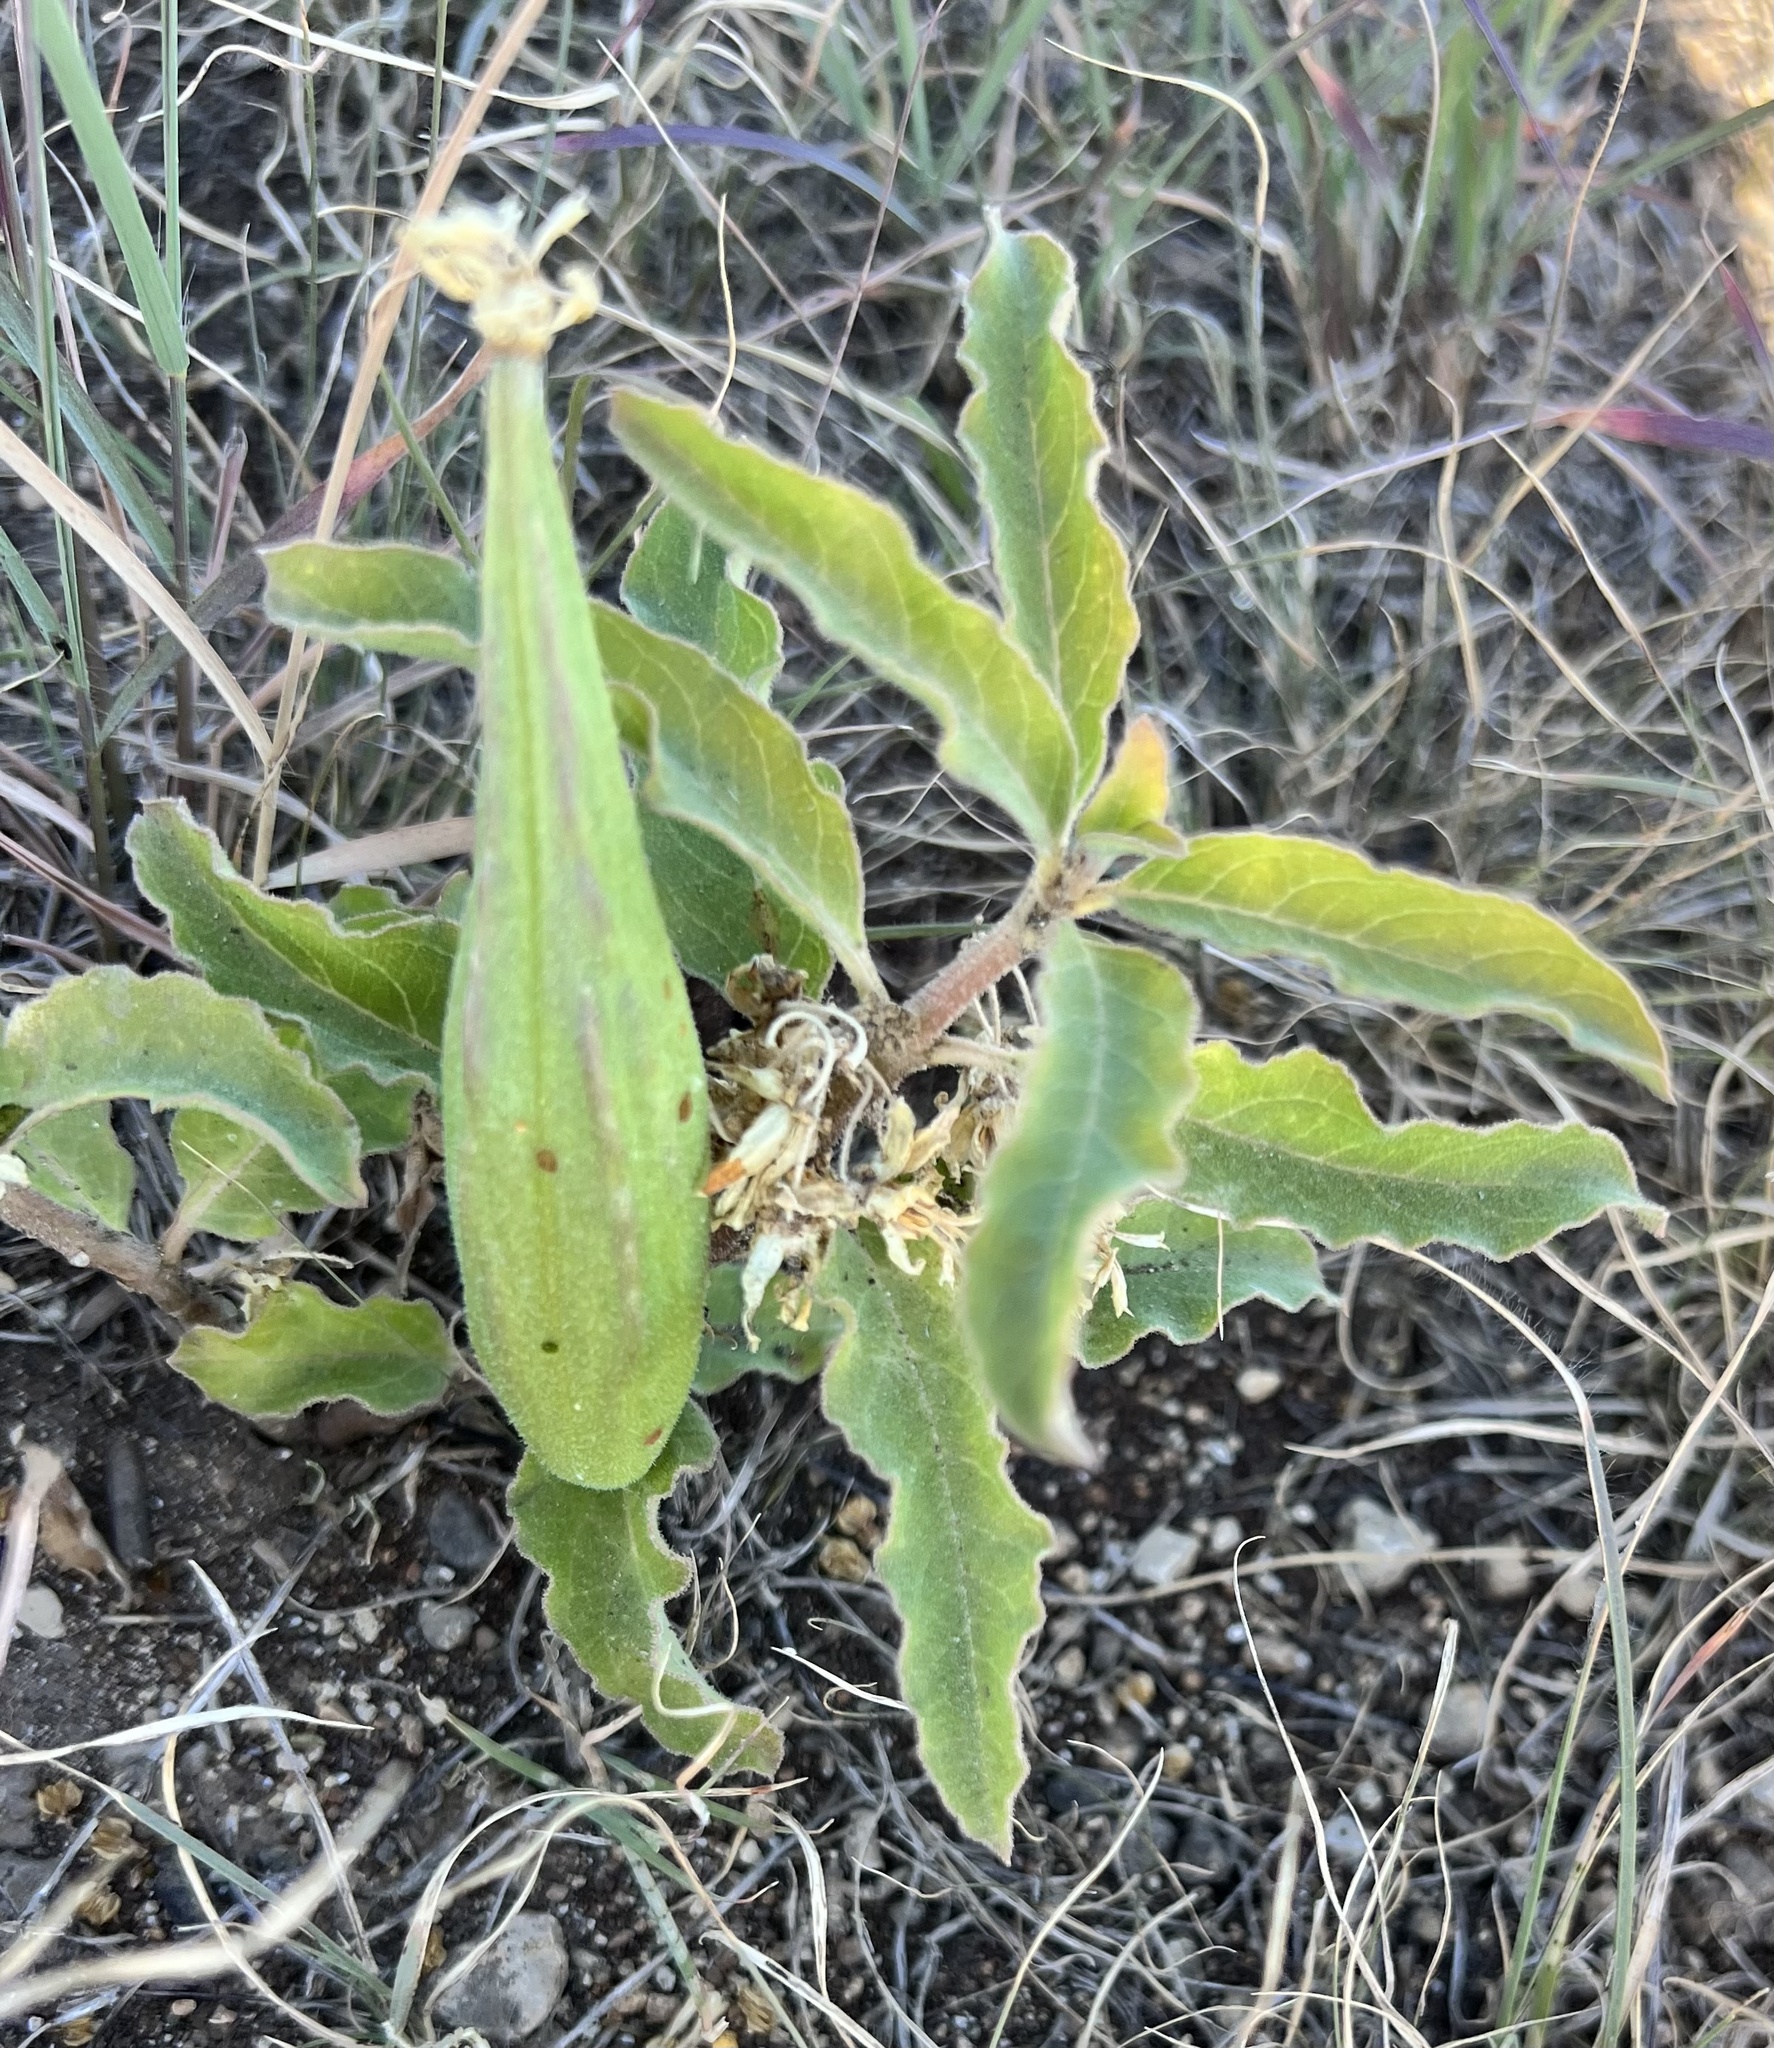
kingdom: Plantae
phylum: Tracheophyta
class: Magnoliopsida
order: Gentianales
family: Apocynaceae
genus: Asclepias
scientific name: Asclepias oenotheroides
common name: Zizotes milkweed
